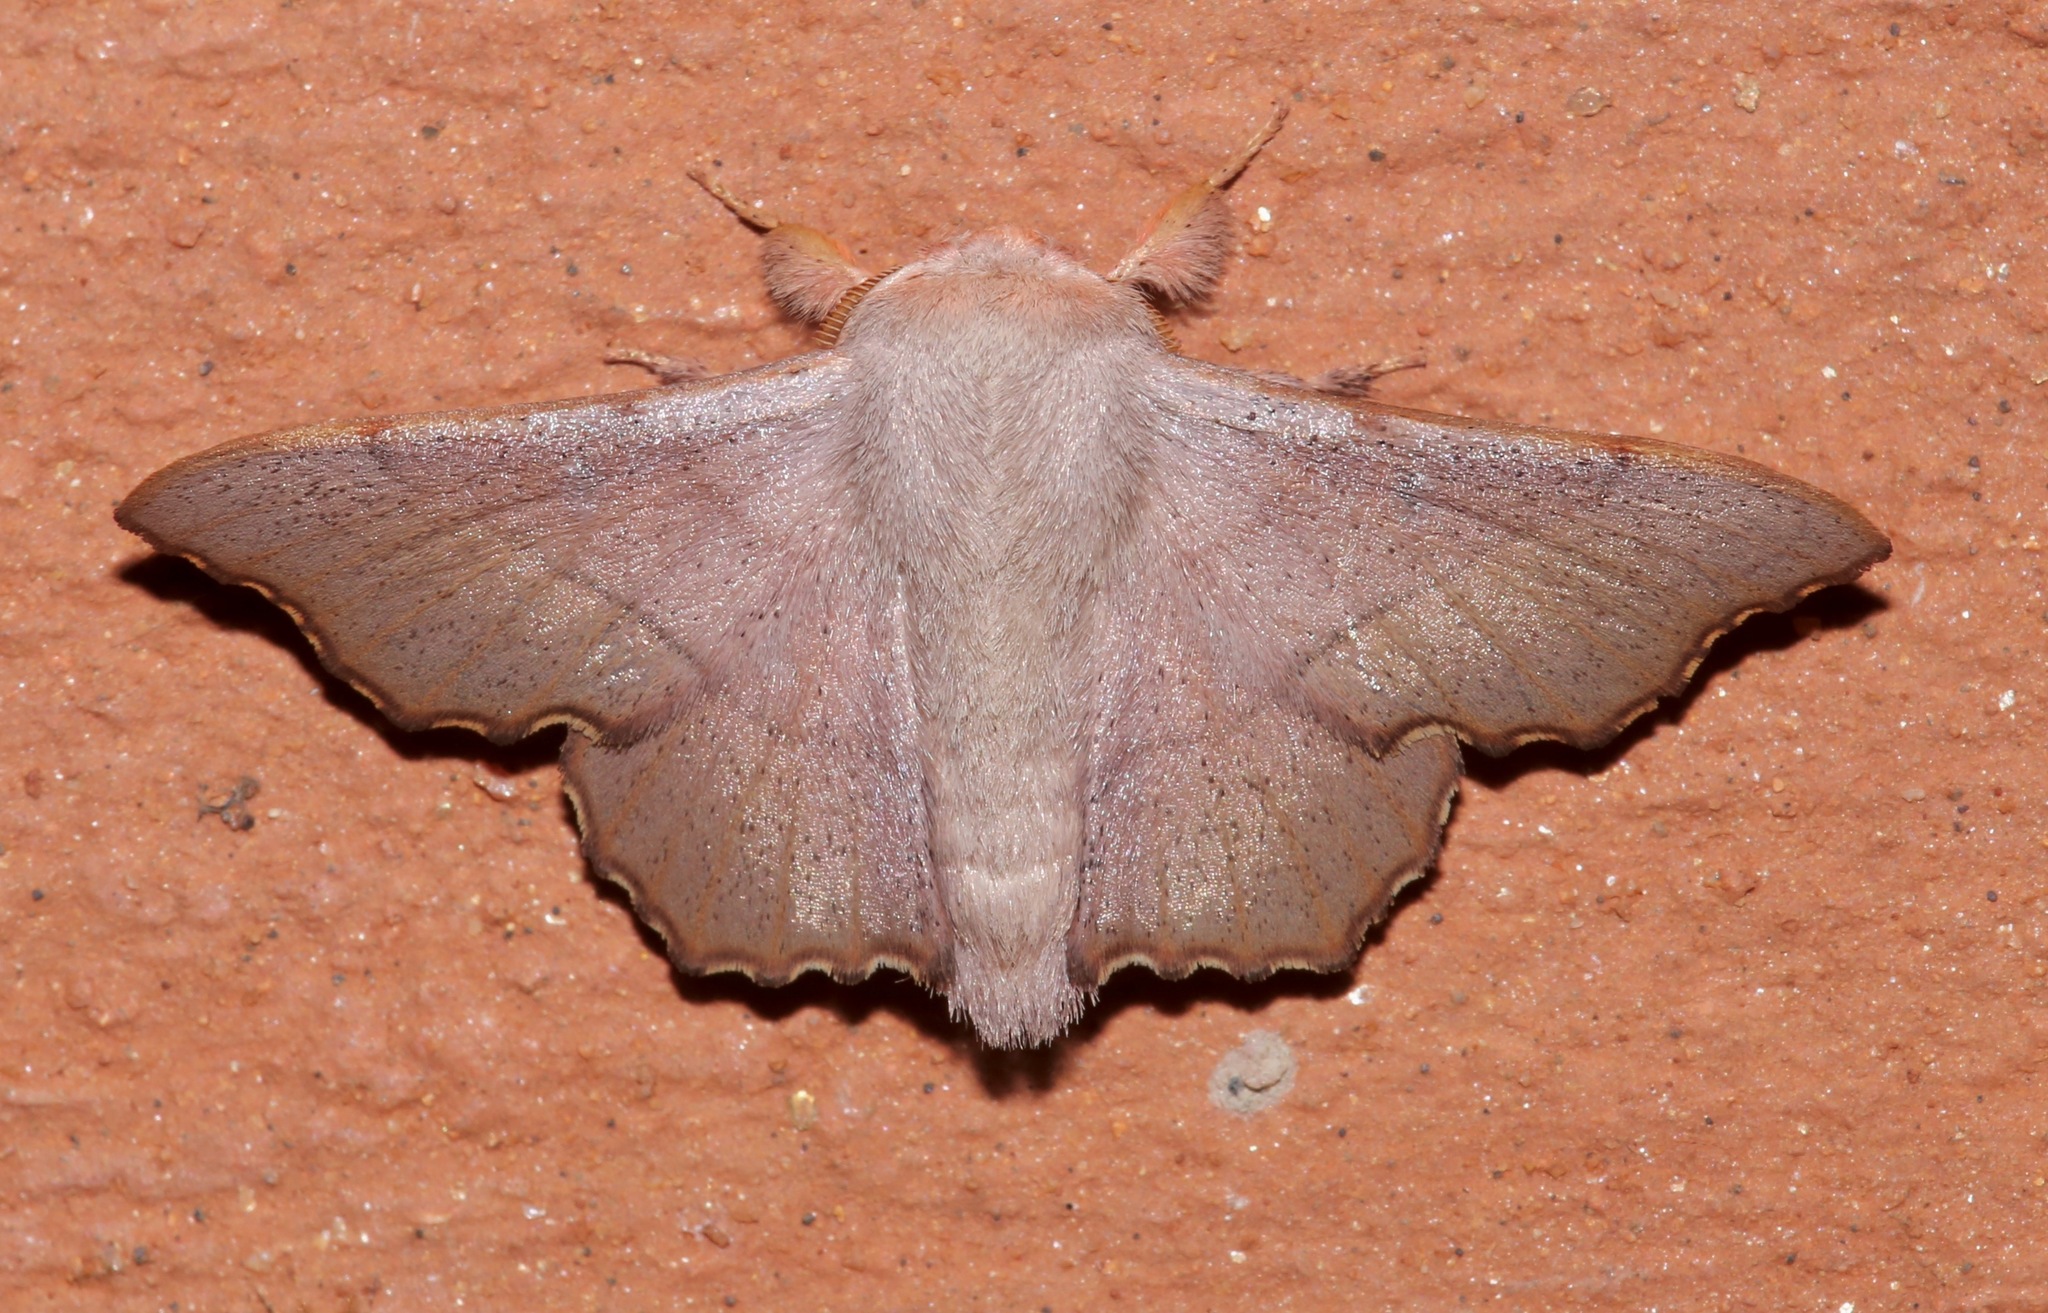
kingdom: Animalia
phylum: Arthropoda
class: Insecta
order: Lepidoptera
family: Mimallonidae
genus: Lacosoma
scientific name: Lacosoma medalla
